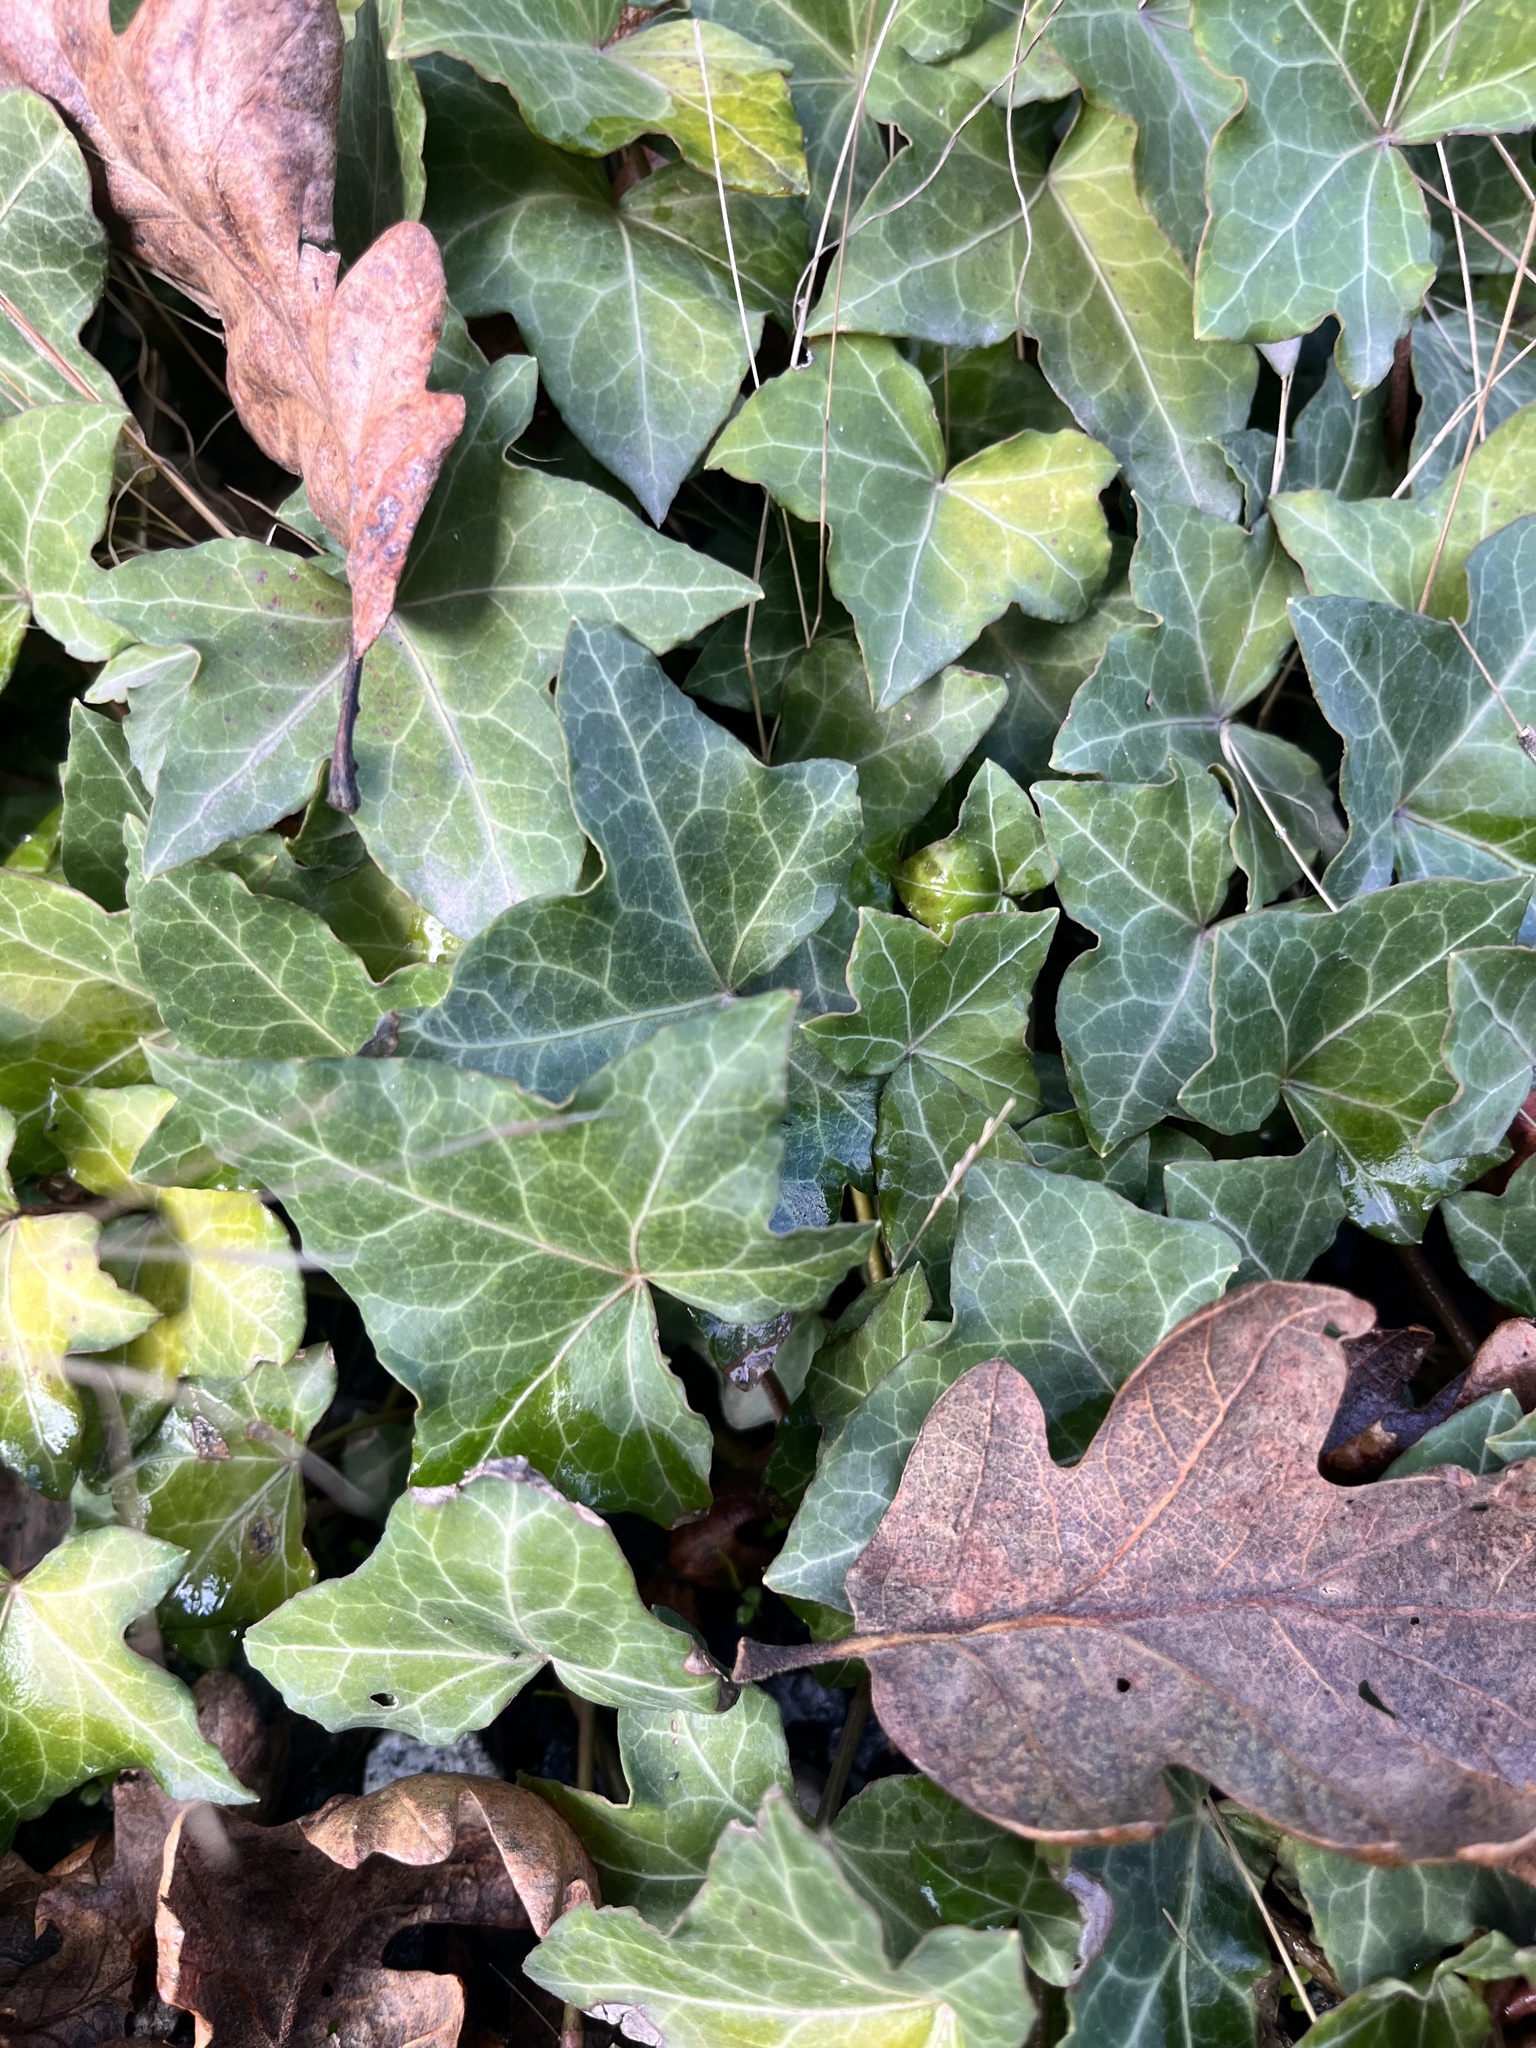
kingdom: Plantae
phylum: Tracheophyta
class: Magnoliopsida
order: Apiales
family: Araliaceae
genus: Hedera
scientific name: Hedera helix
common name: Ivy
